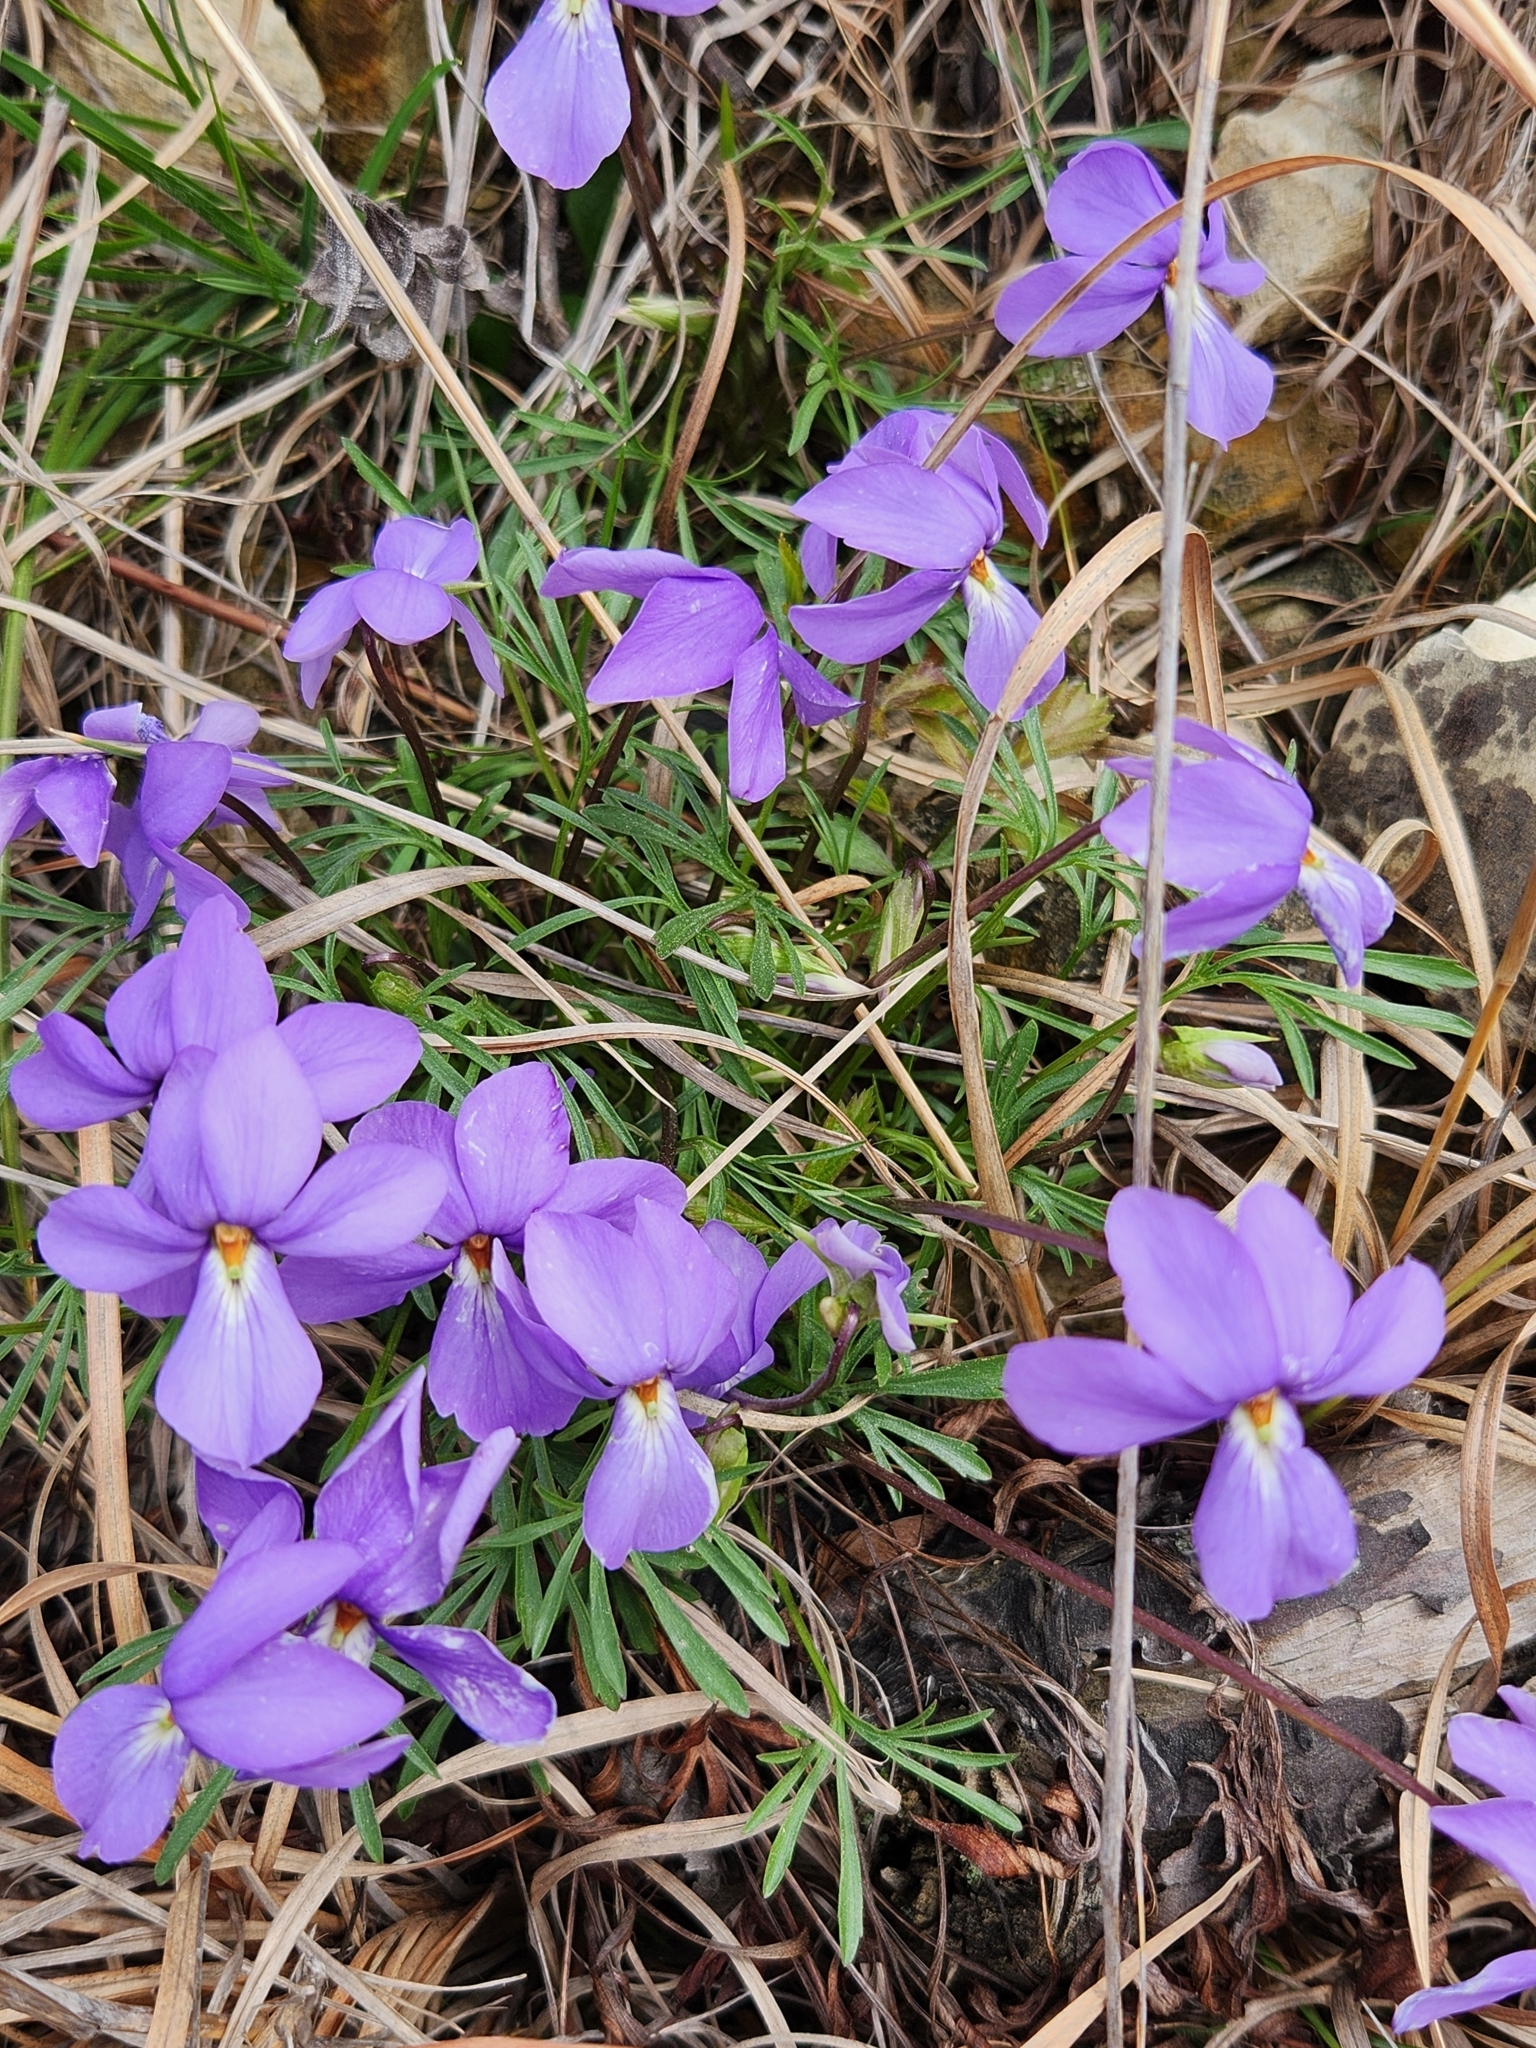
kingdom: Plantae
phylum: Tracheophyta
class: Magnoliopsida
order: Malpighiales
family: Violaceae
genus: Viola
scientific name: Viola pedata
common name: Pansy violet
